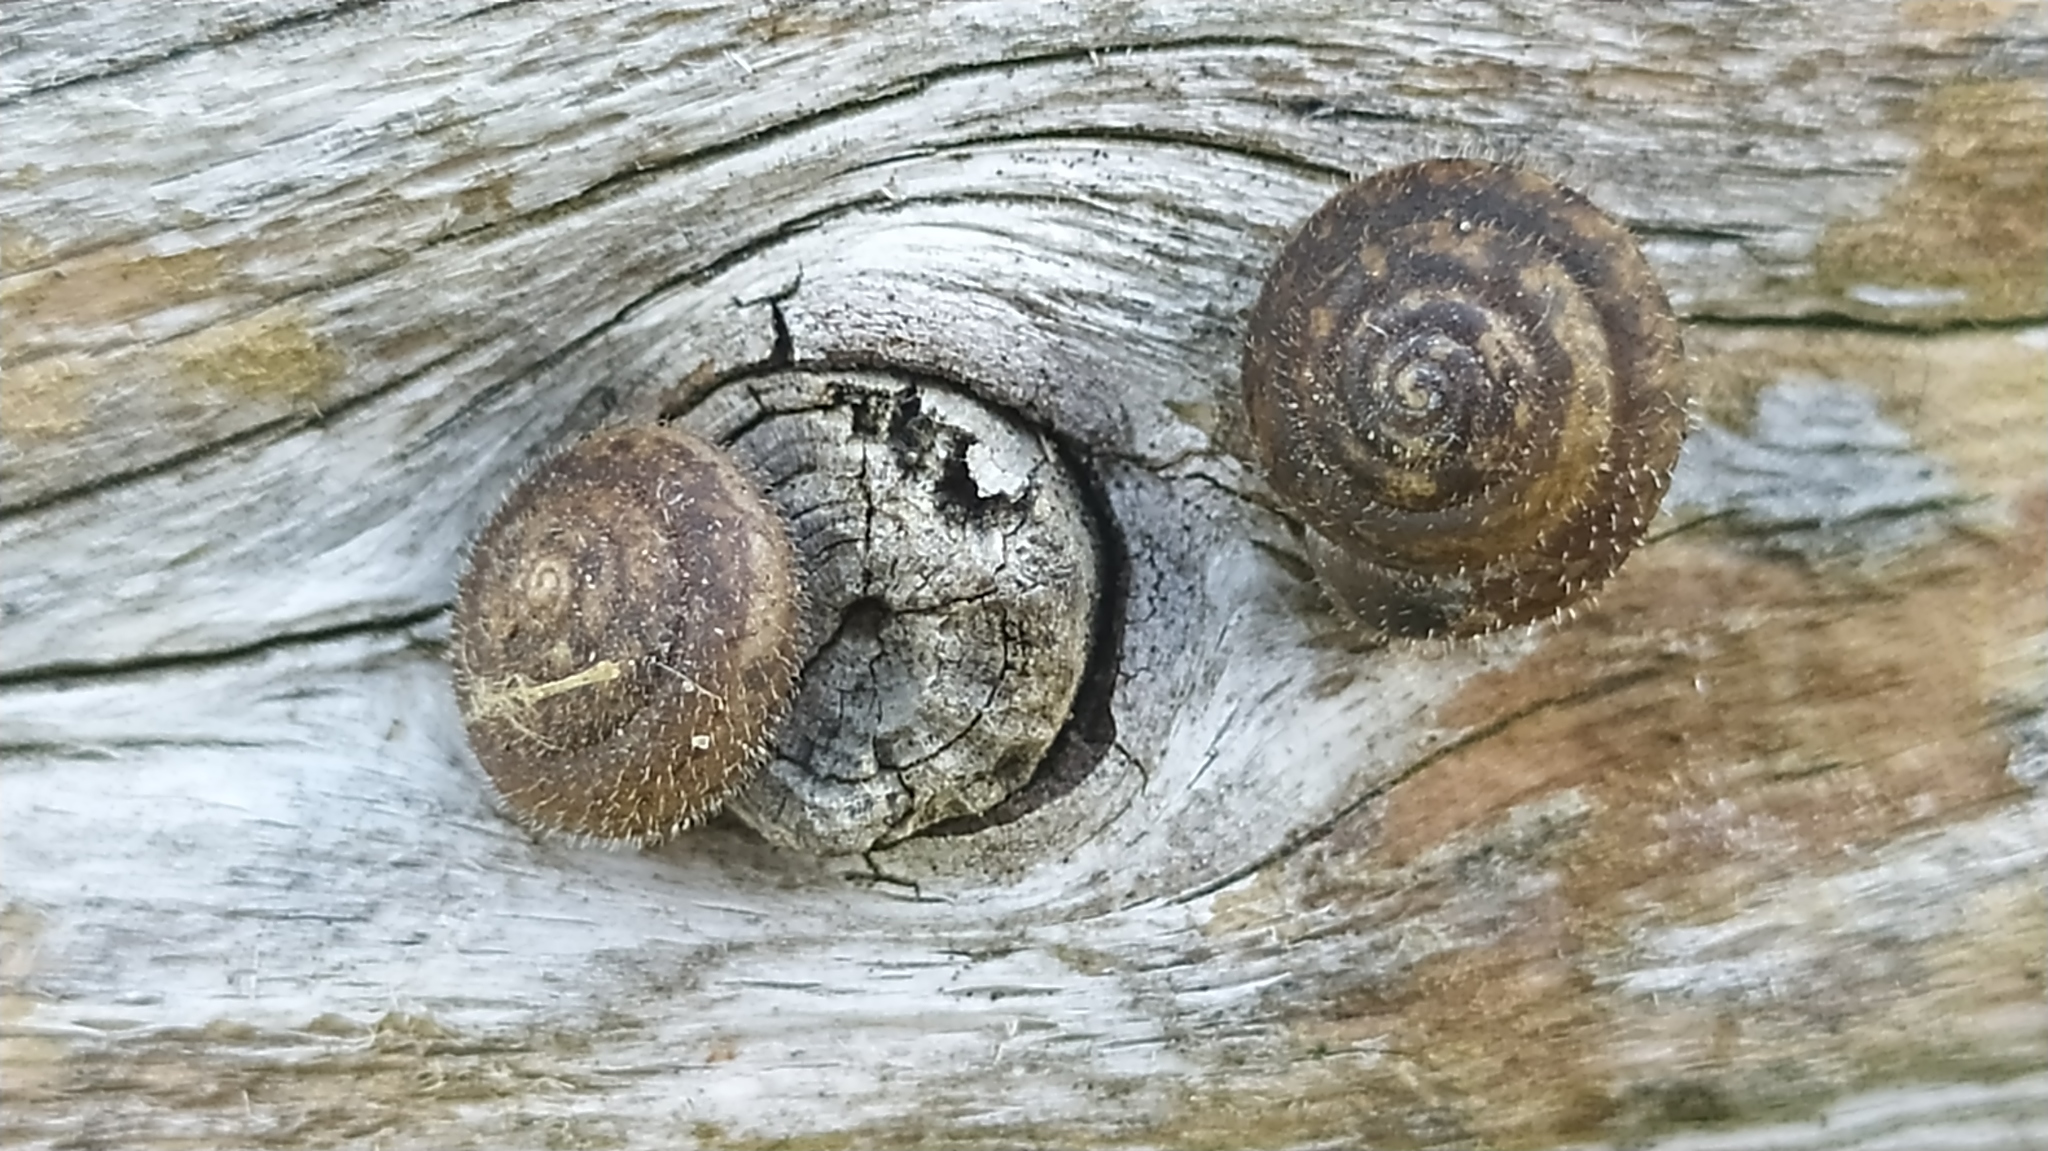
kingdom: Animalia
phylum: Mollusca
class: Gastropoda
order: Stylommatophora
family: Hygromiidae
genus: Trochulus
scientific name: Trochulus hispidus
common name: Hairy snail
